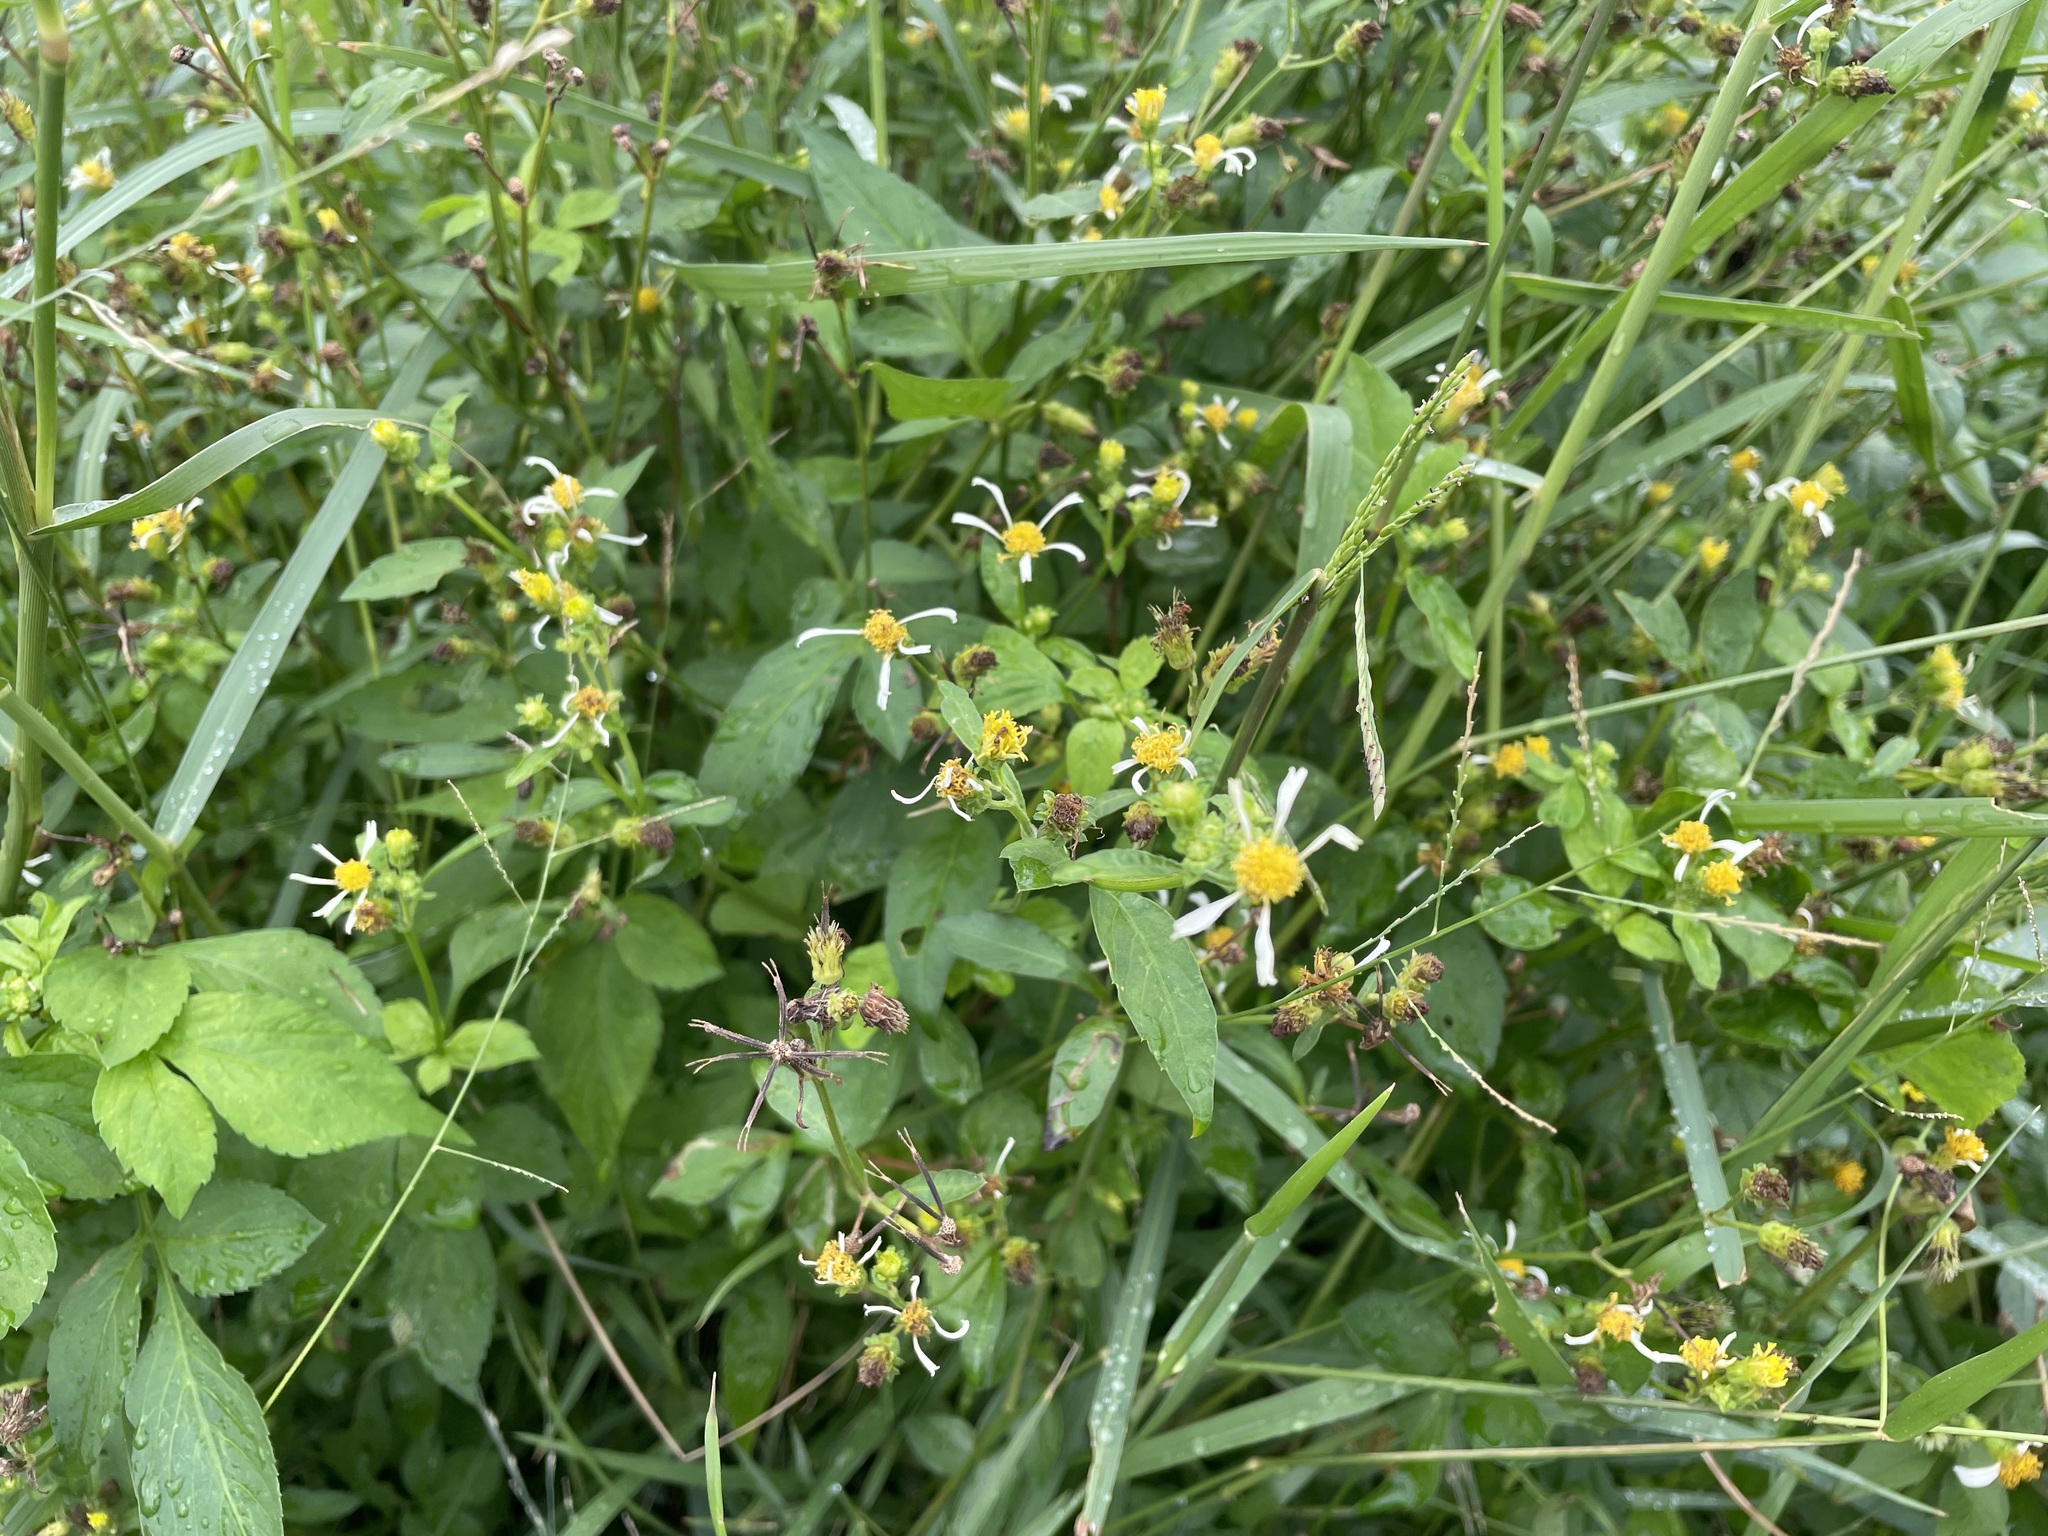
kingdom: Plantae
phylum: Tracheophyta
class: Magnoliopsida
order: Asterales
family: Asteraceae
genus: Bidens
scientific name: Bidens alba
